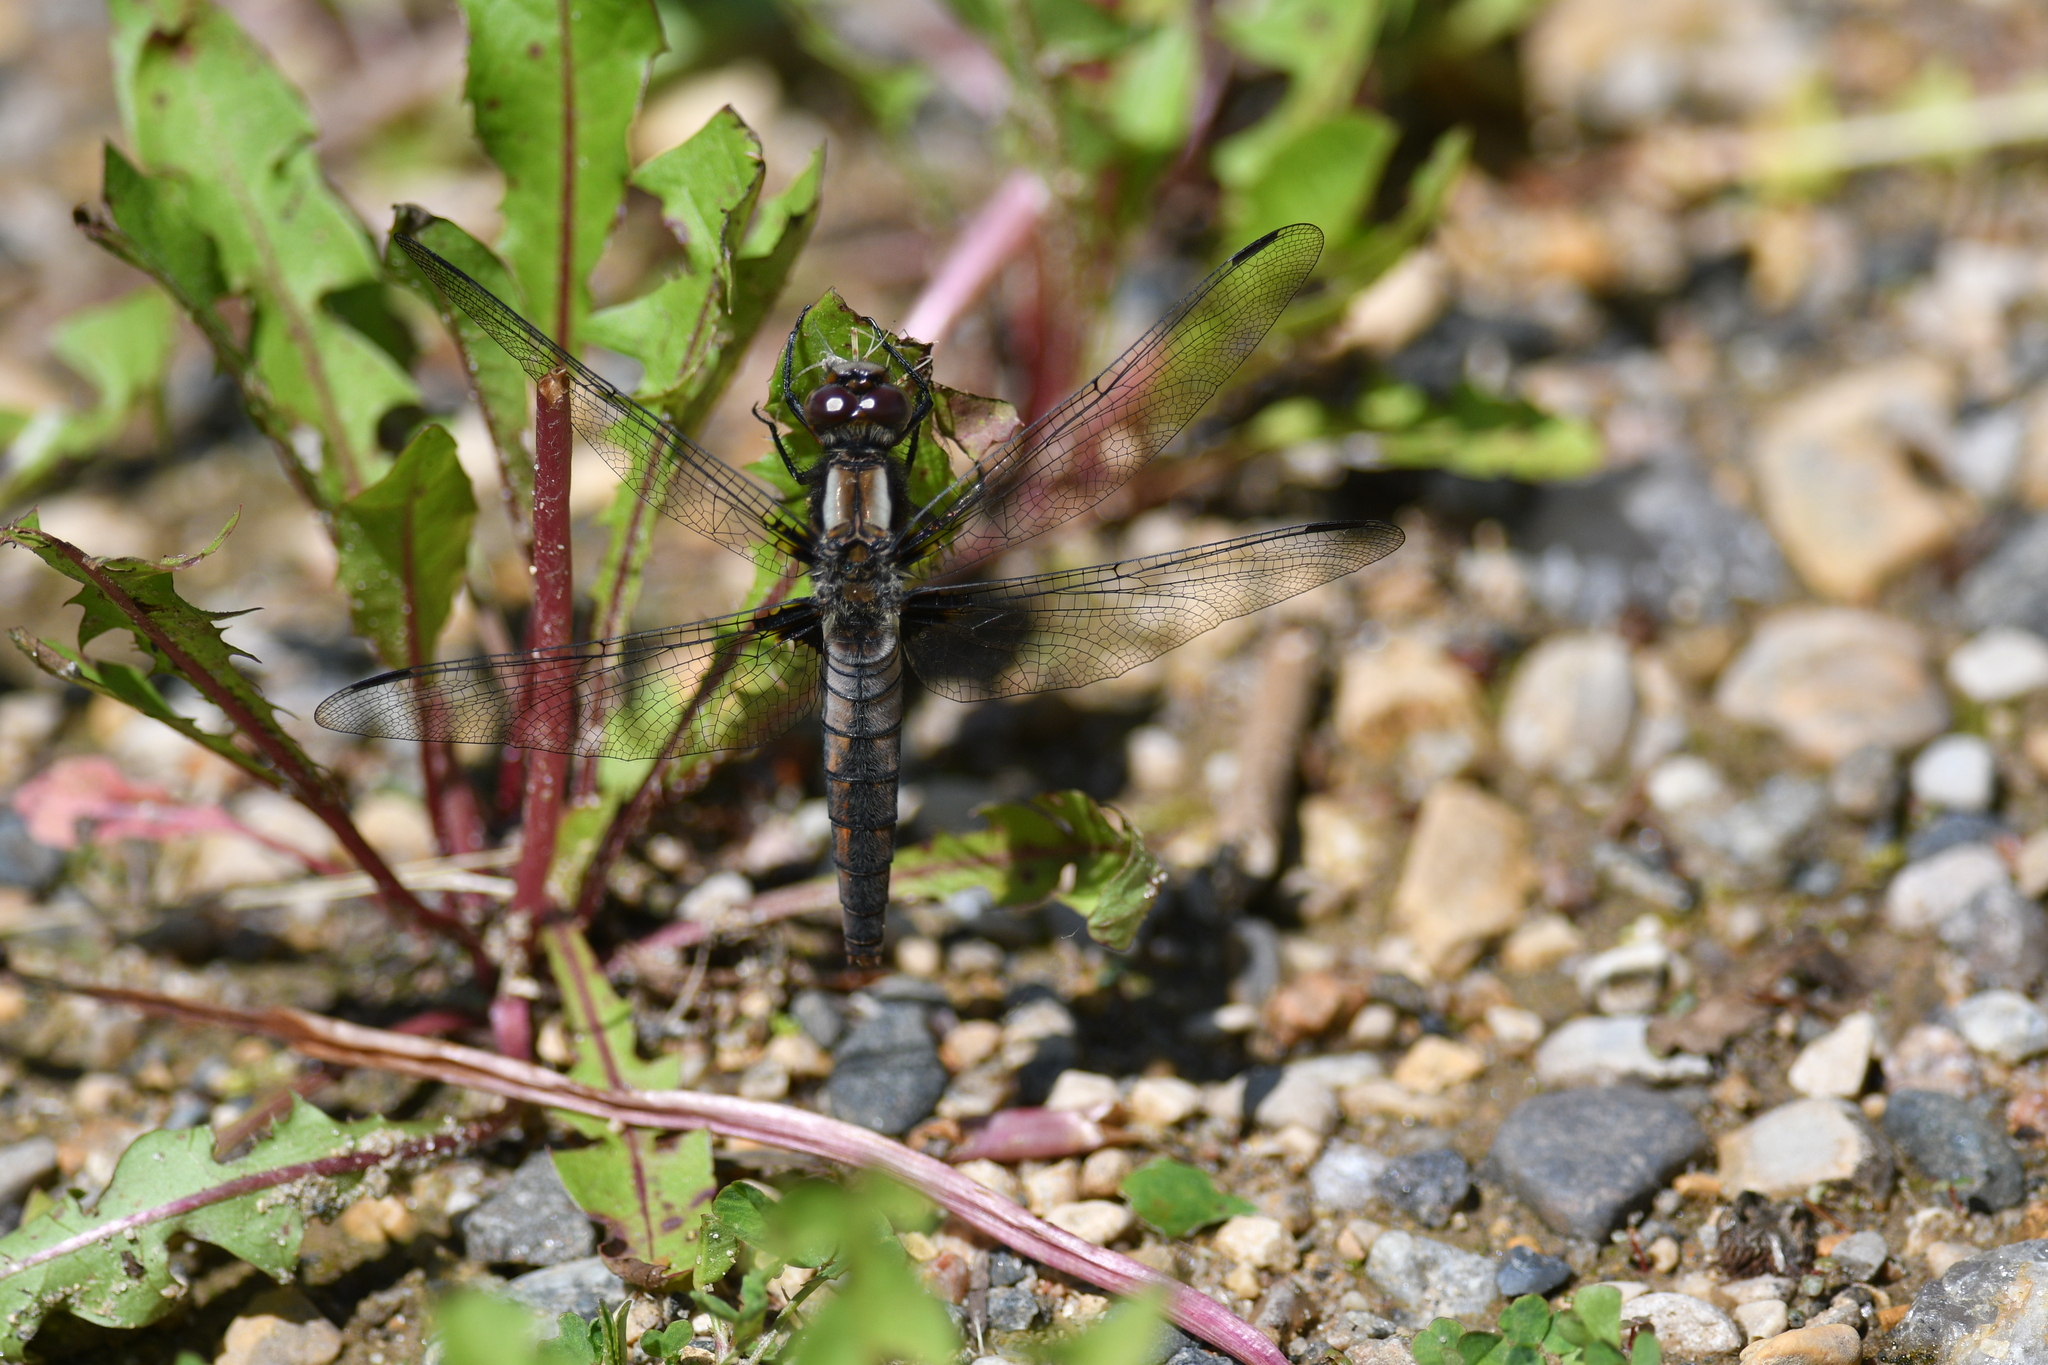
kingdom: Animalia
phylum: Arthropoda
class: Insecta
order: Odonata
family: Libellulidae
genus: Ladona
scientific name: Ladona julia
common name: Chalk-fronted corporal
